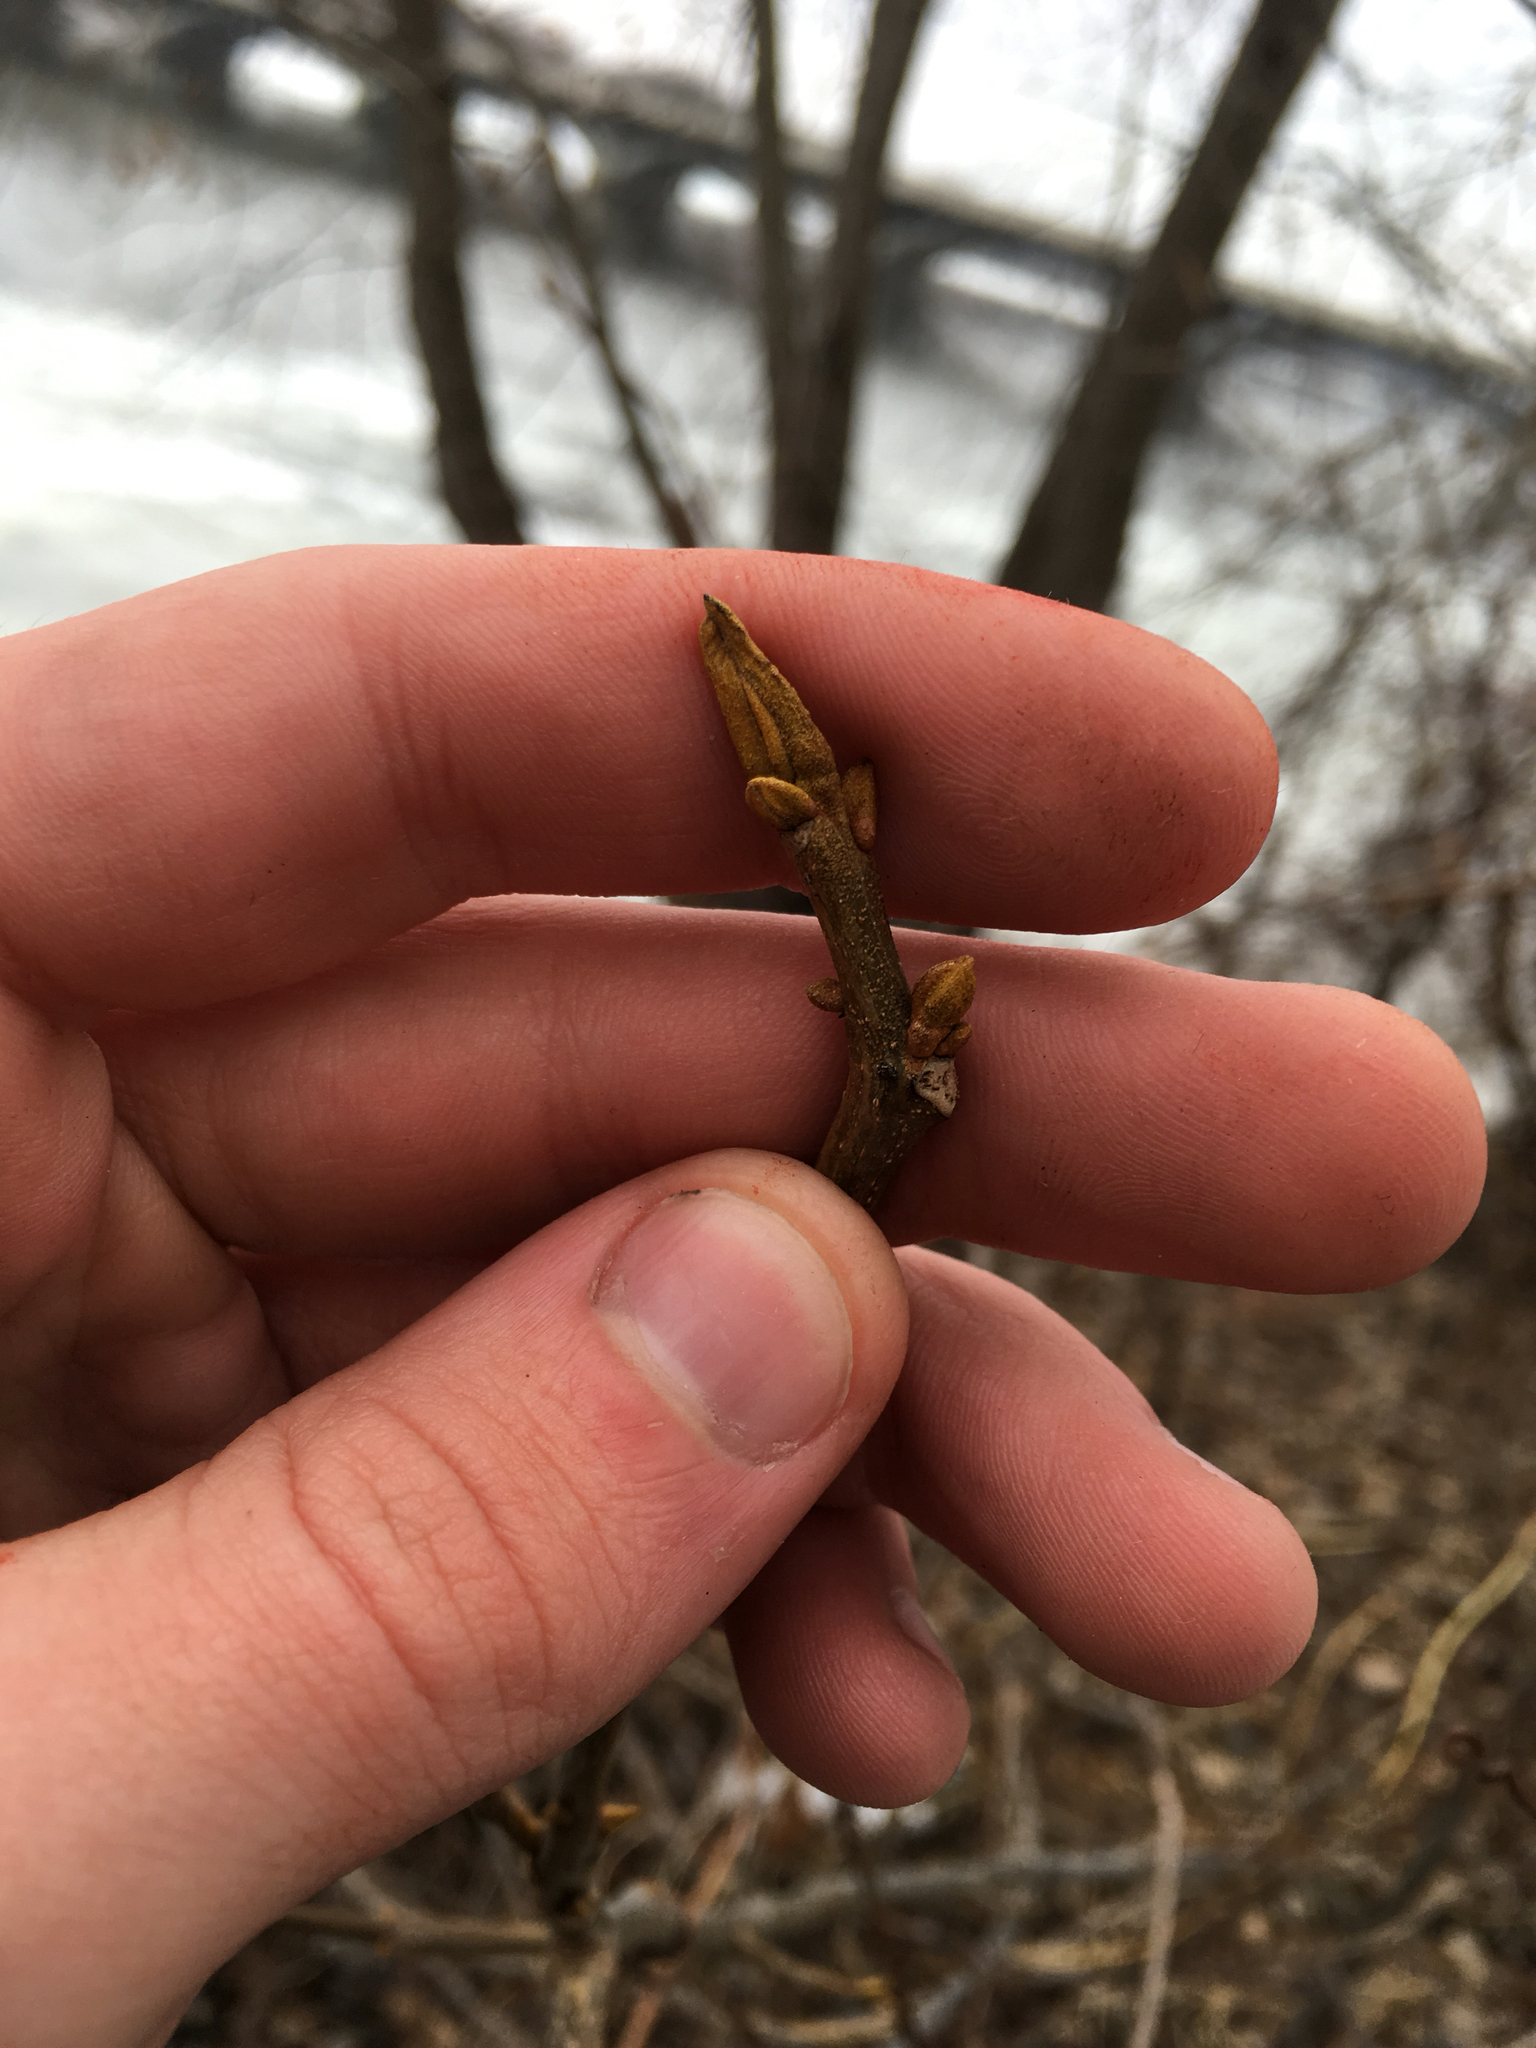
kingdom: Plantae
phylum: Tracheophyta
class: Magnoliopsida
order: Fagales
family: Juglandaceae
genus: Carya
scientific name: Carya cordiformis
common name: Bitternut hickory
